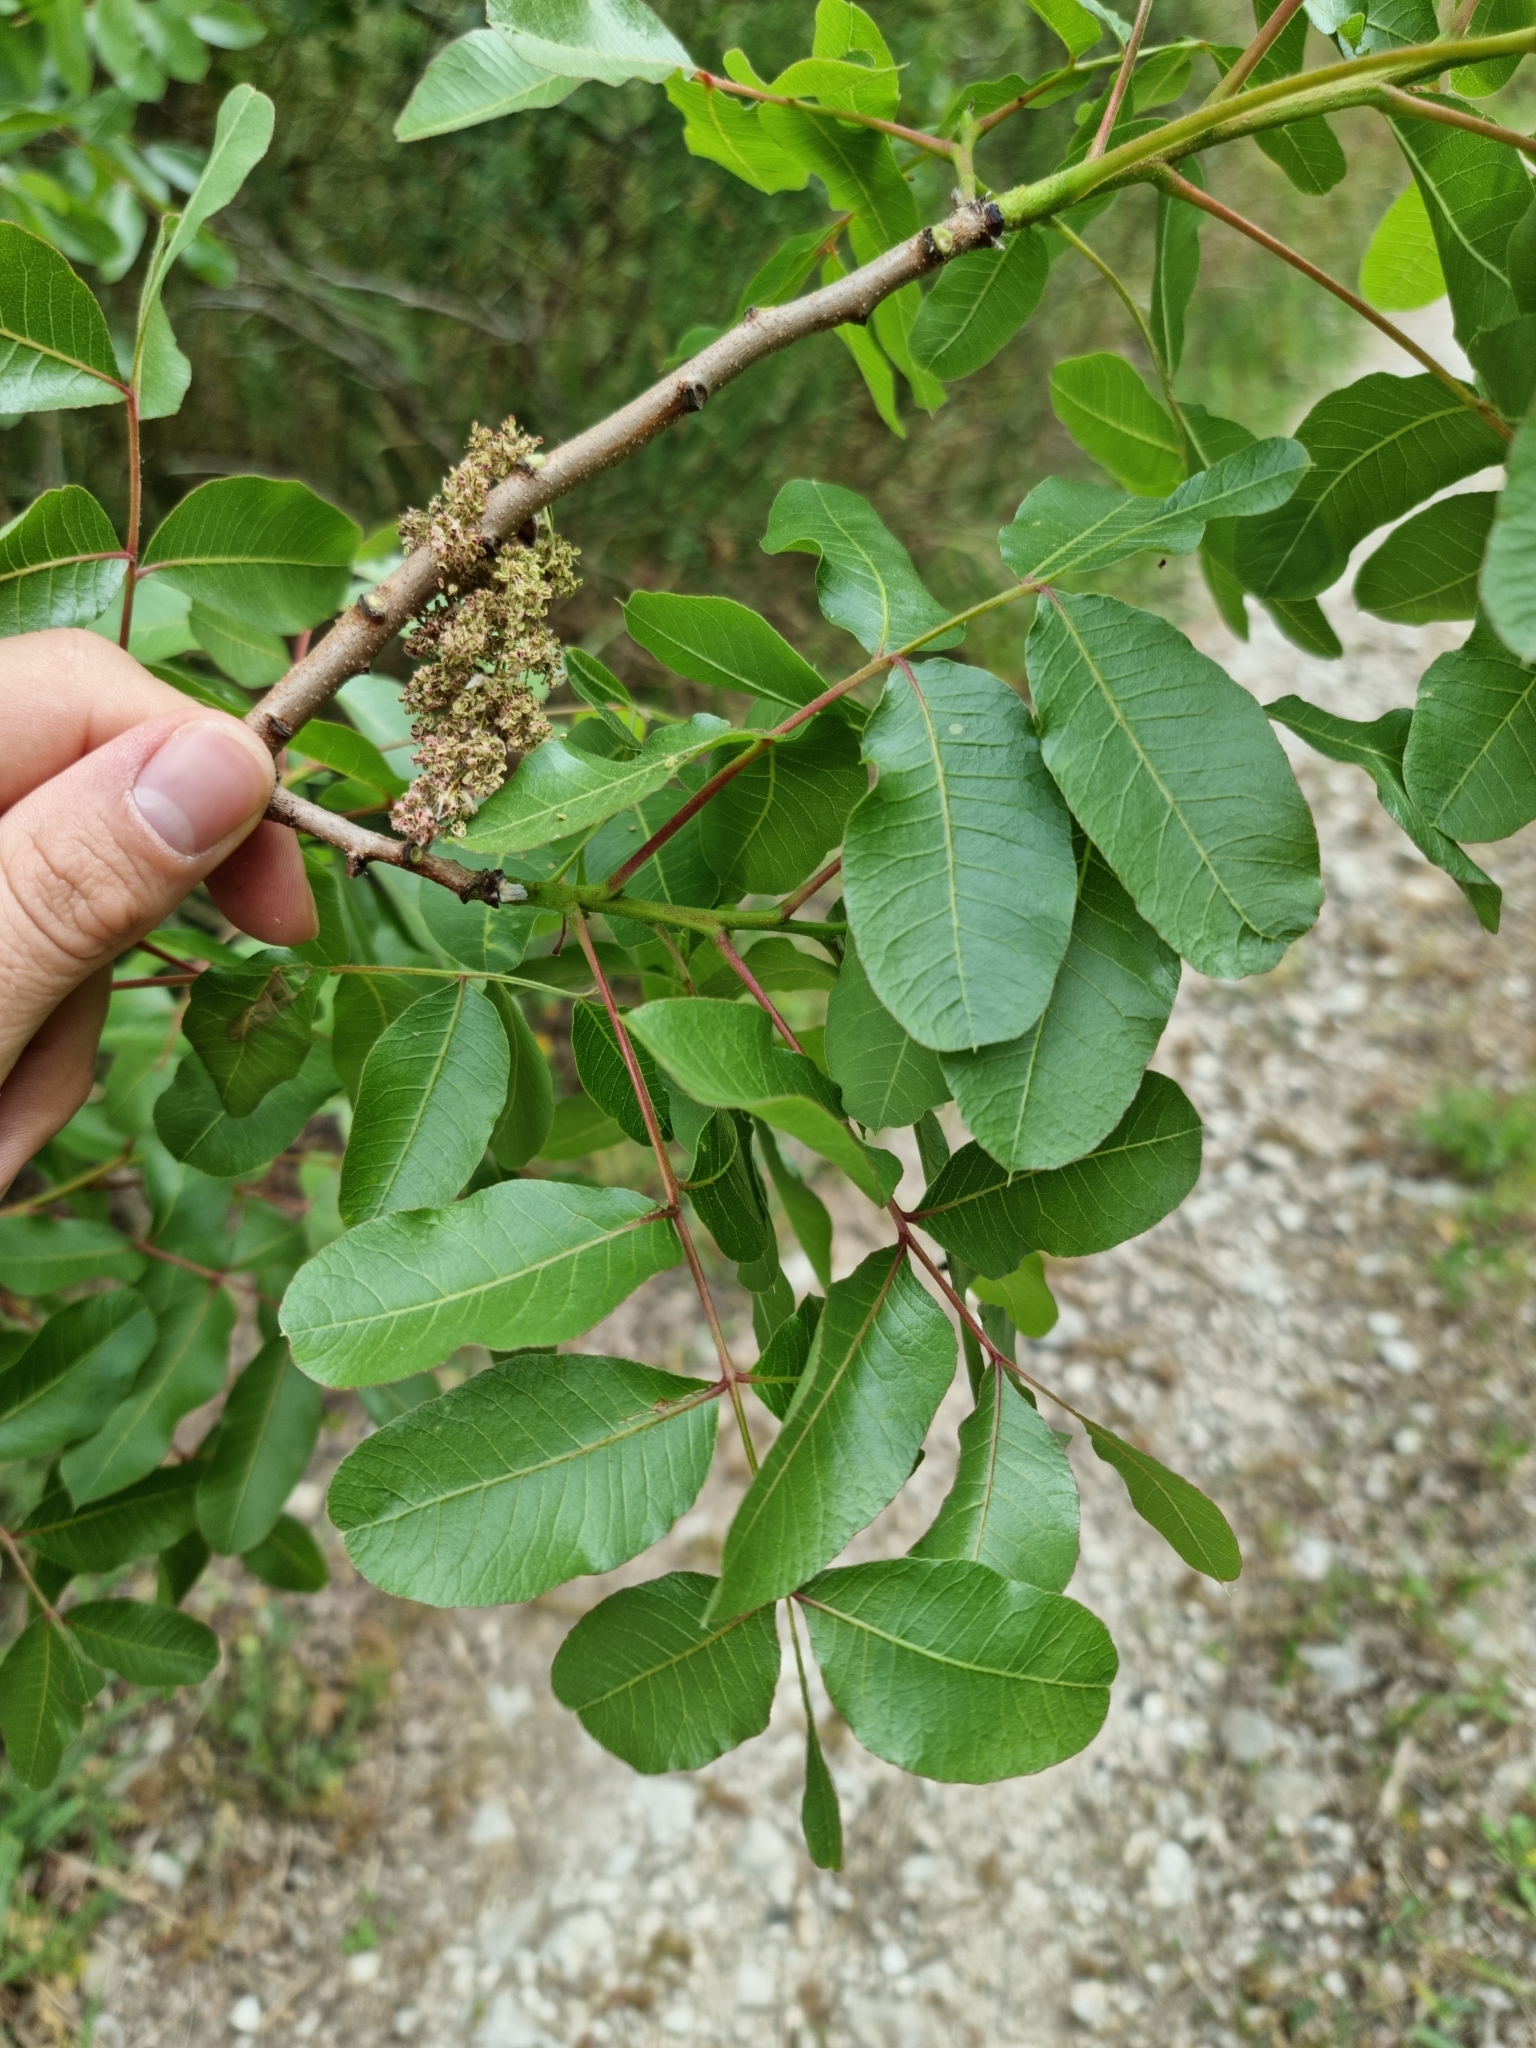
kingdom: Plantae
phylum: Tracheophyta
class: Magnoliopsida
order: Sapindales
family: Anacardiaceae
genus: Pistacia
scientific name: Pistacia terebinthus
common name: Terebinth
